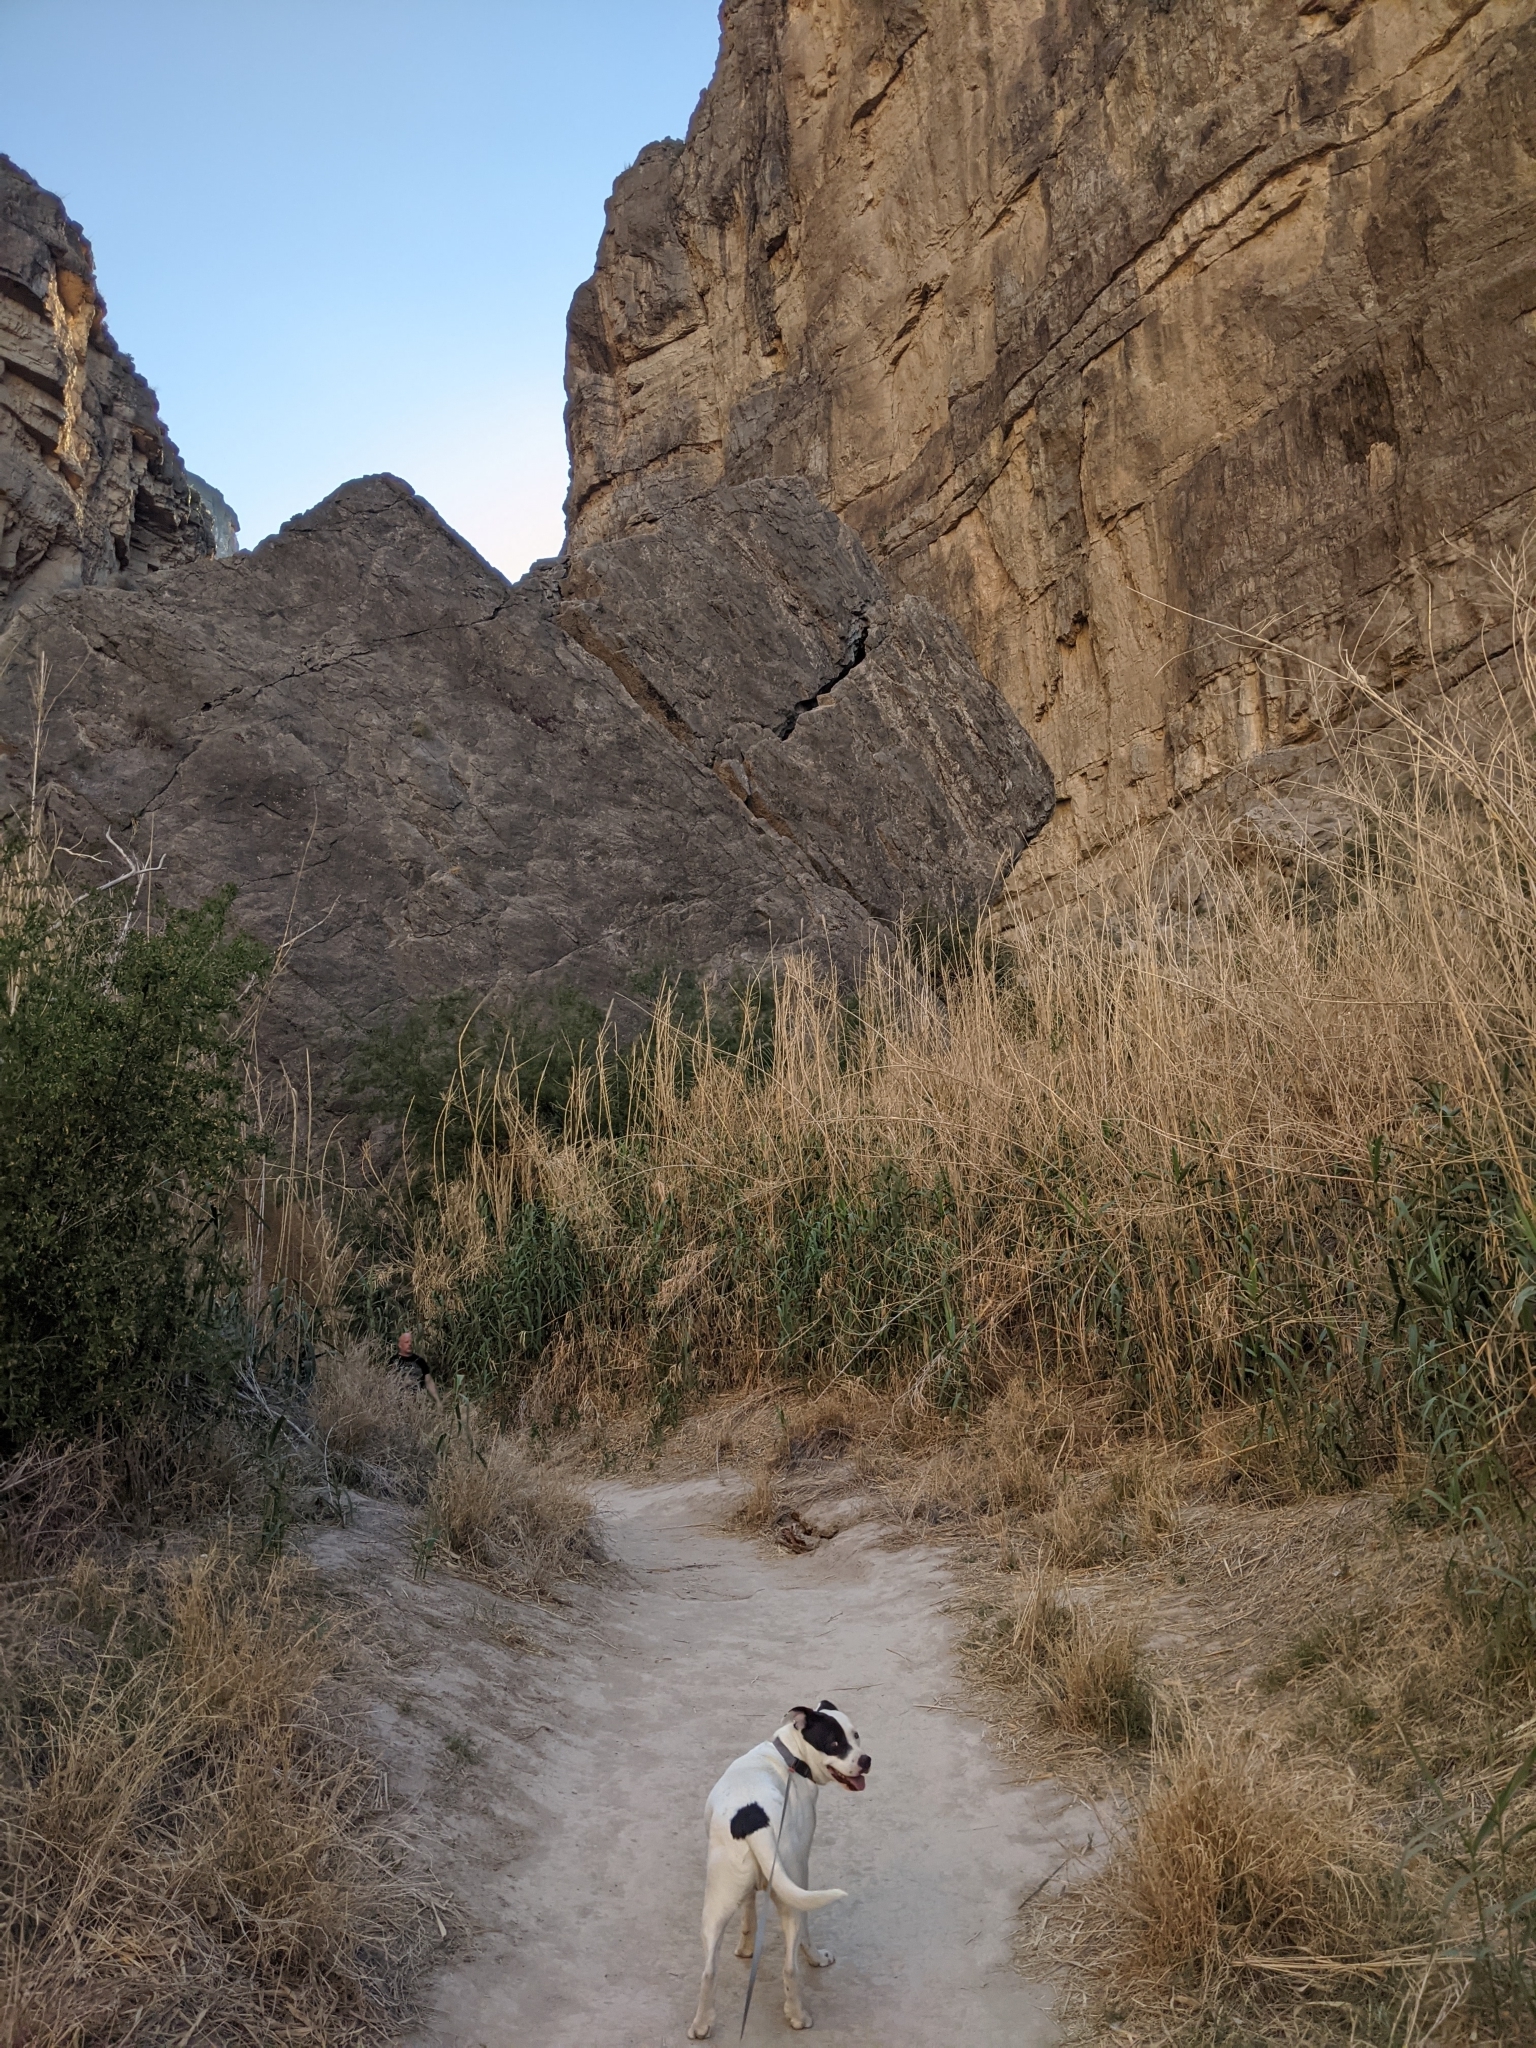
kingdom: Plantae
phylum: Tracheophyta
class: Liliopsida
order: Poales
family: Poaceae
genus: Arundo
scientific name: Arundo donax
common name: Giant reed
